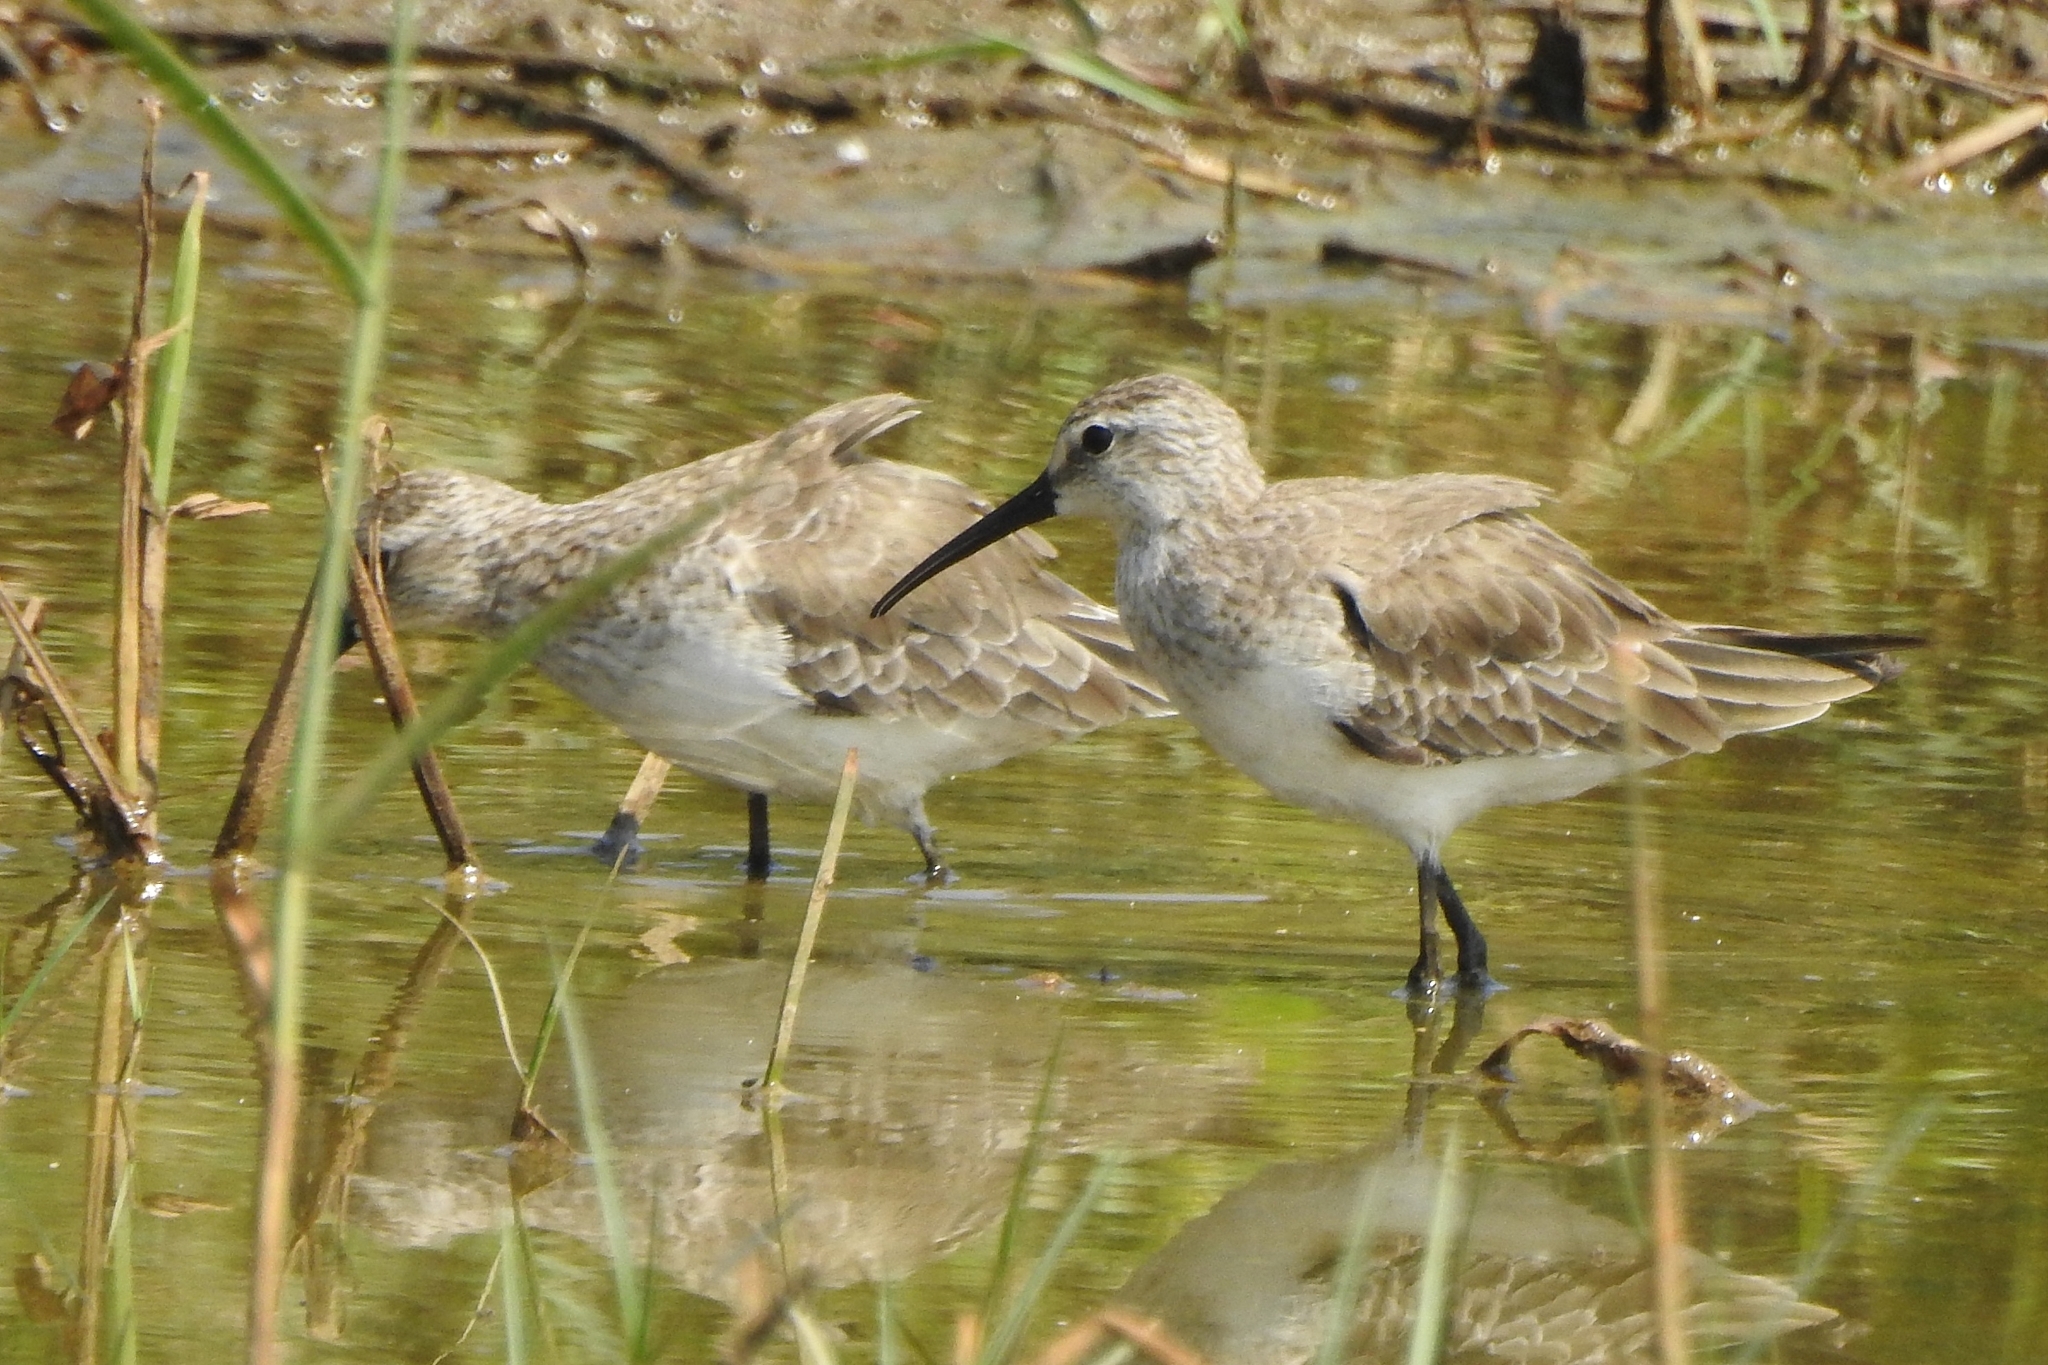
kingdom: Animalia
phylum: Chordata
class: Aves
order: Charadriiformes
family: Scolopacidae
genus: Calidris
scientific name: Calidris ferruginea
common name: Curlew sandpiper
